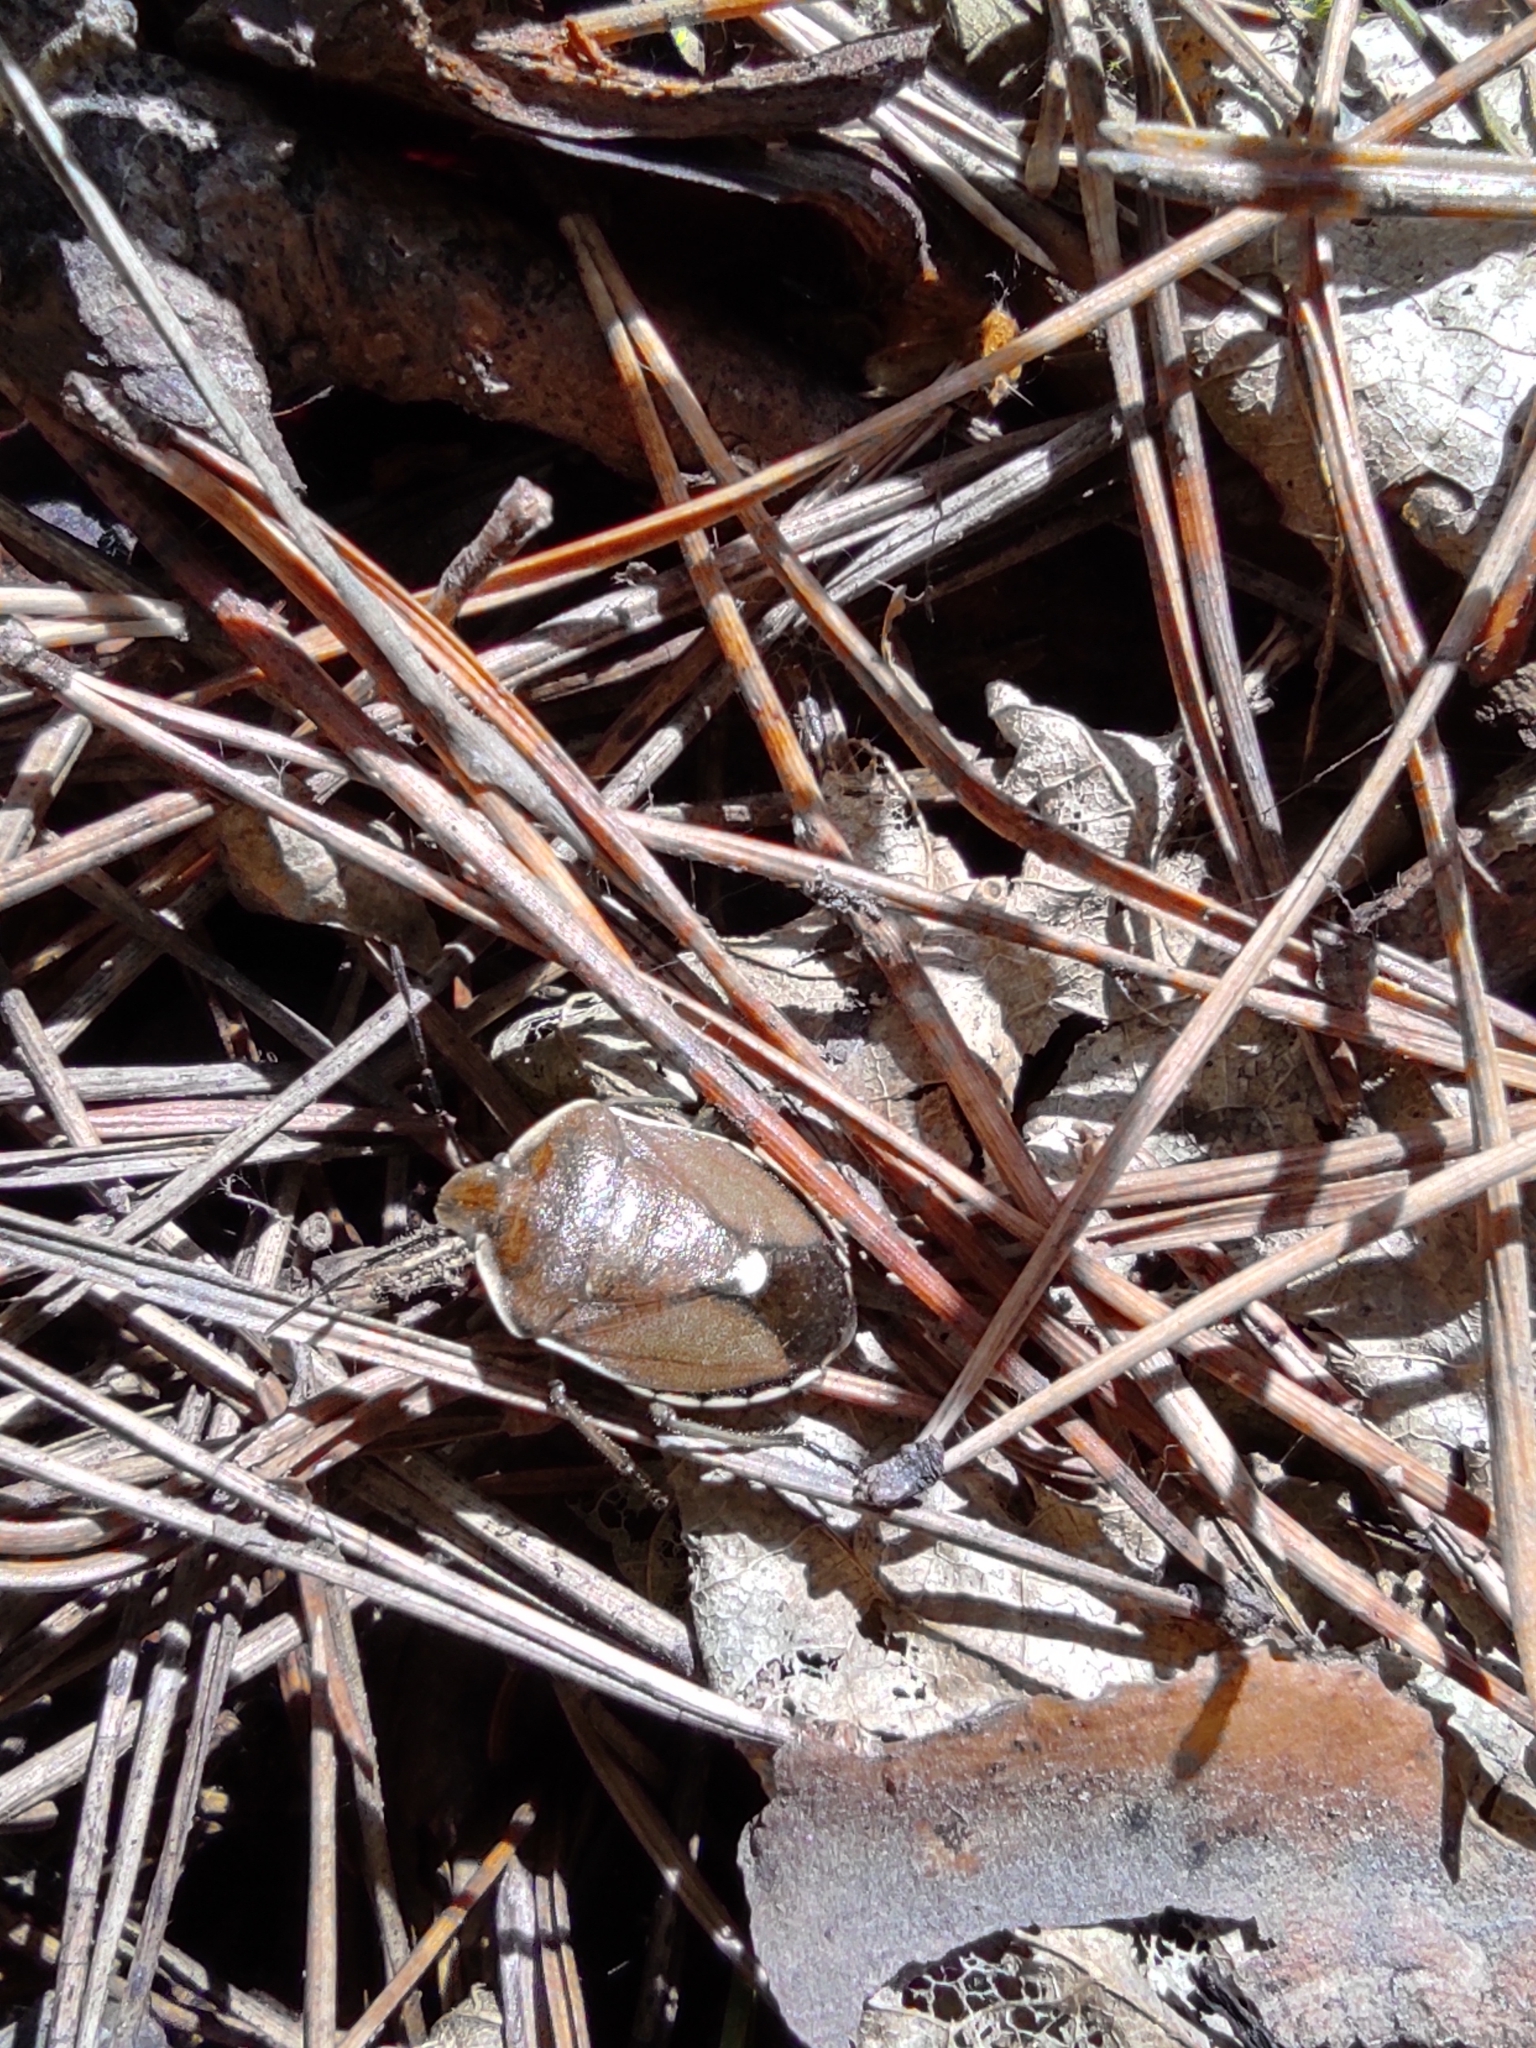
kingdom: Animalia
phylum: Arthropoda
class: Insecta
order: Hemiptera
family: Pentatomidae
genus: Chlorochroa
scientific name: Chlorochroa pinicola
